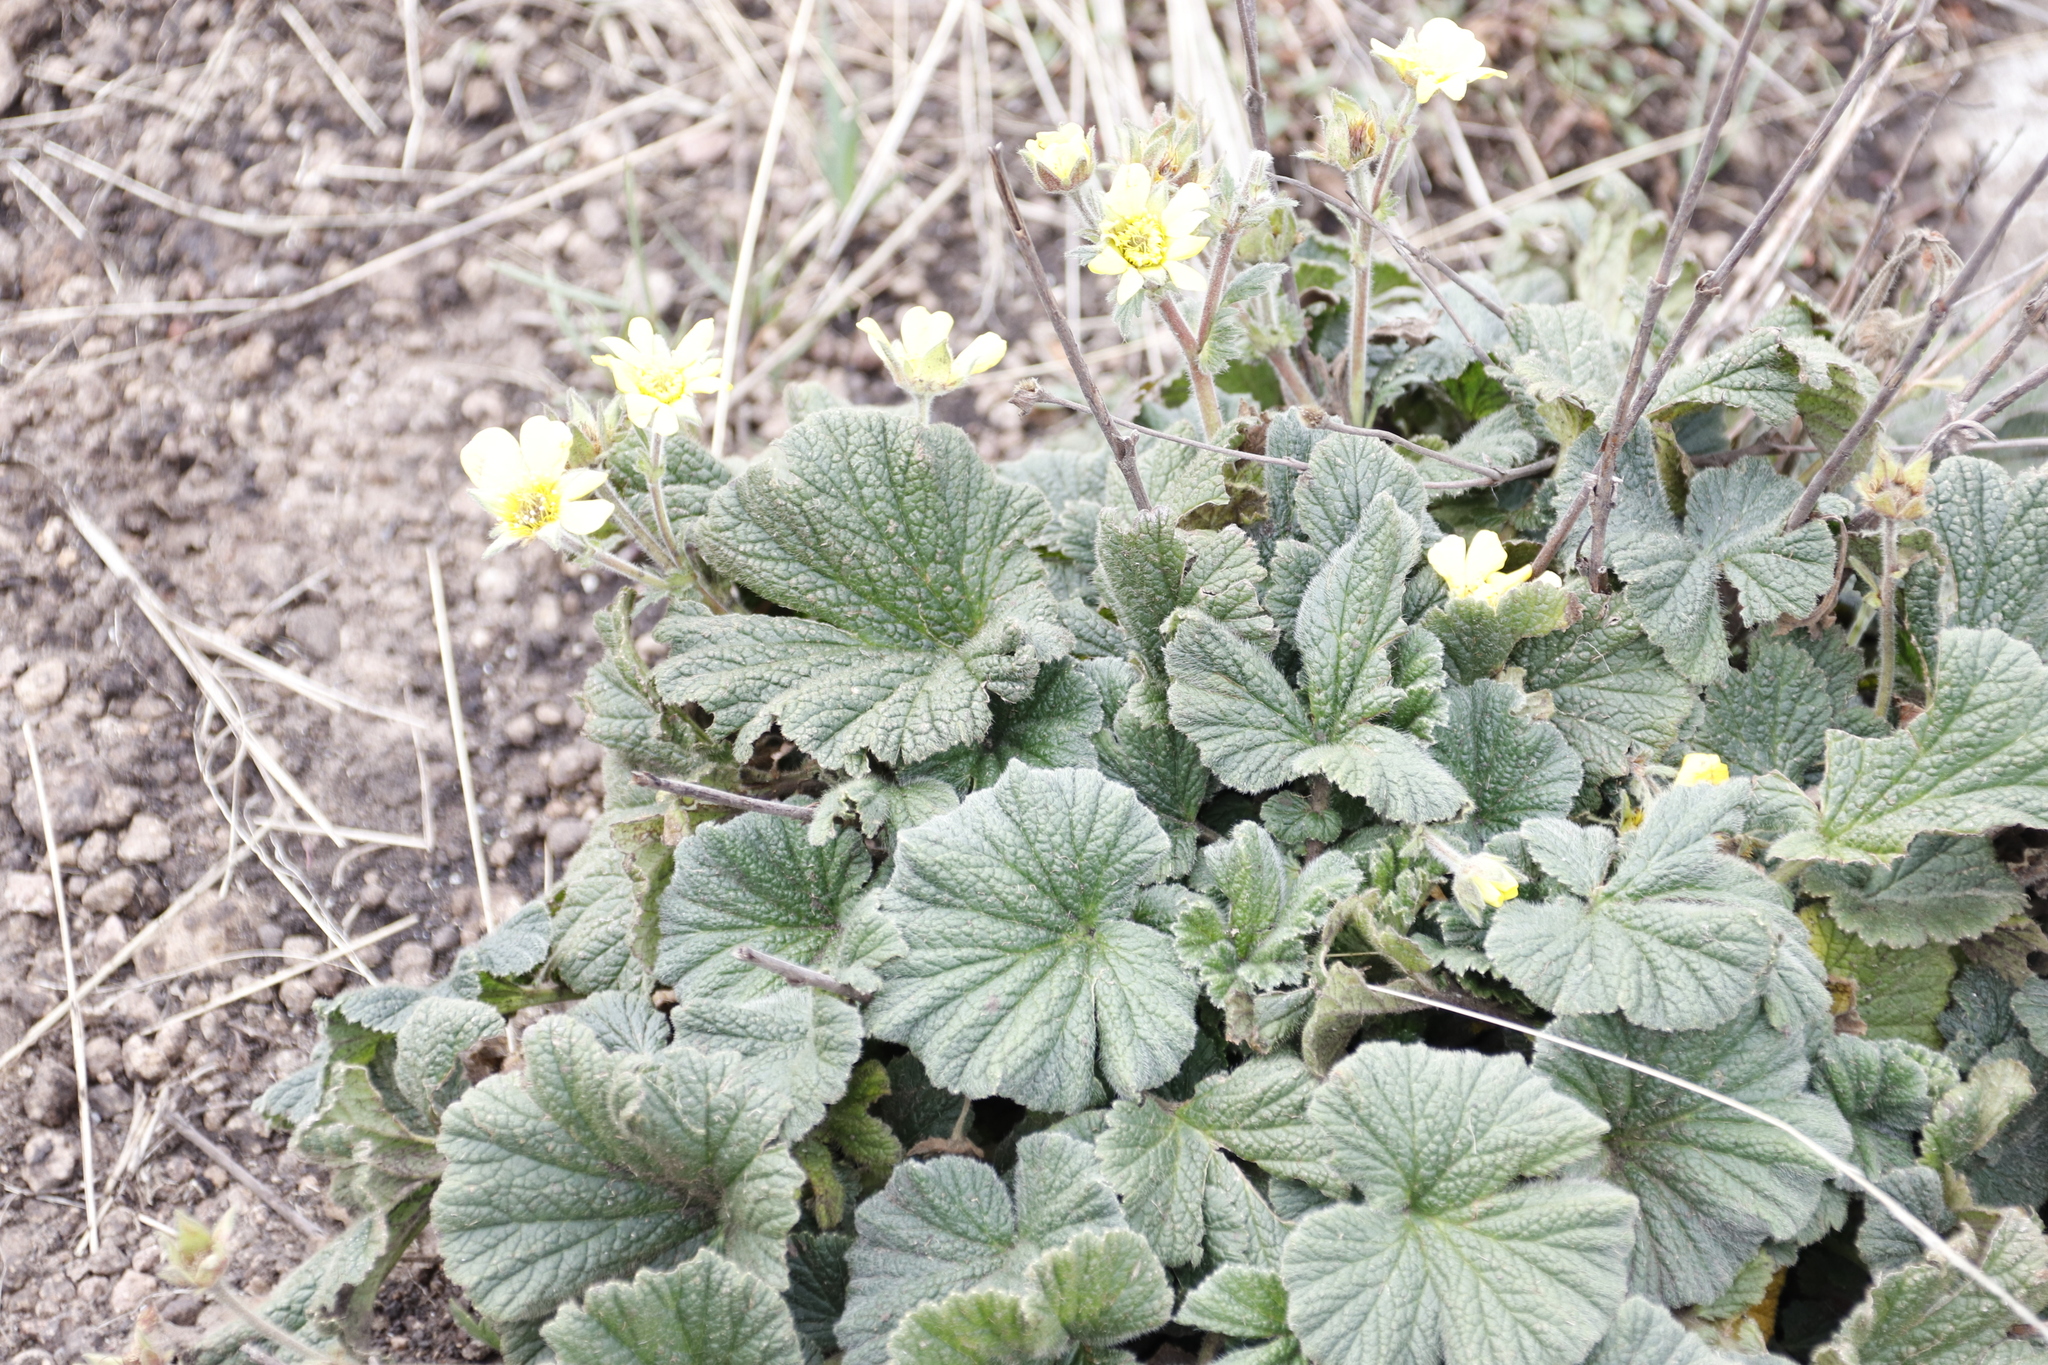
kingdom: Plantae
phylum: Tracheophyta
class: Magnoliopsida
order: Rosales
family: Rosaceae
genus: Geum
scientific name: Geum capense
